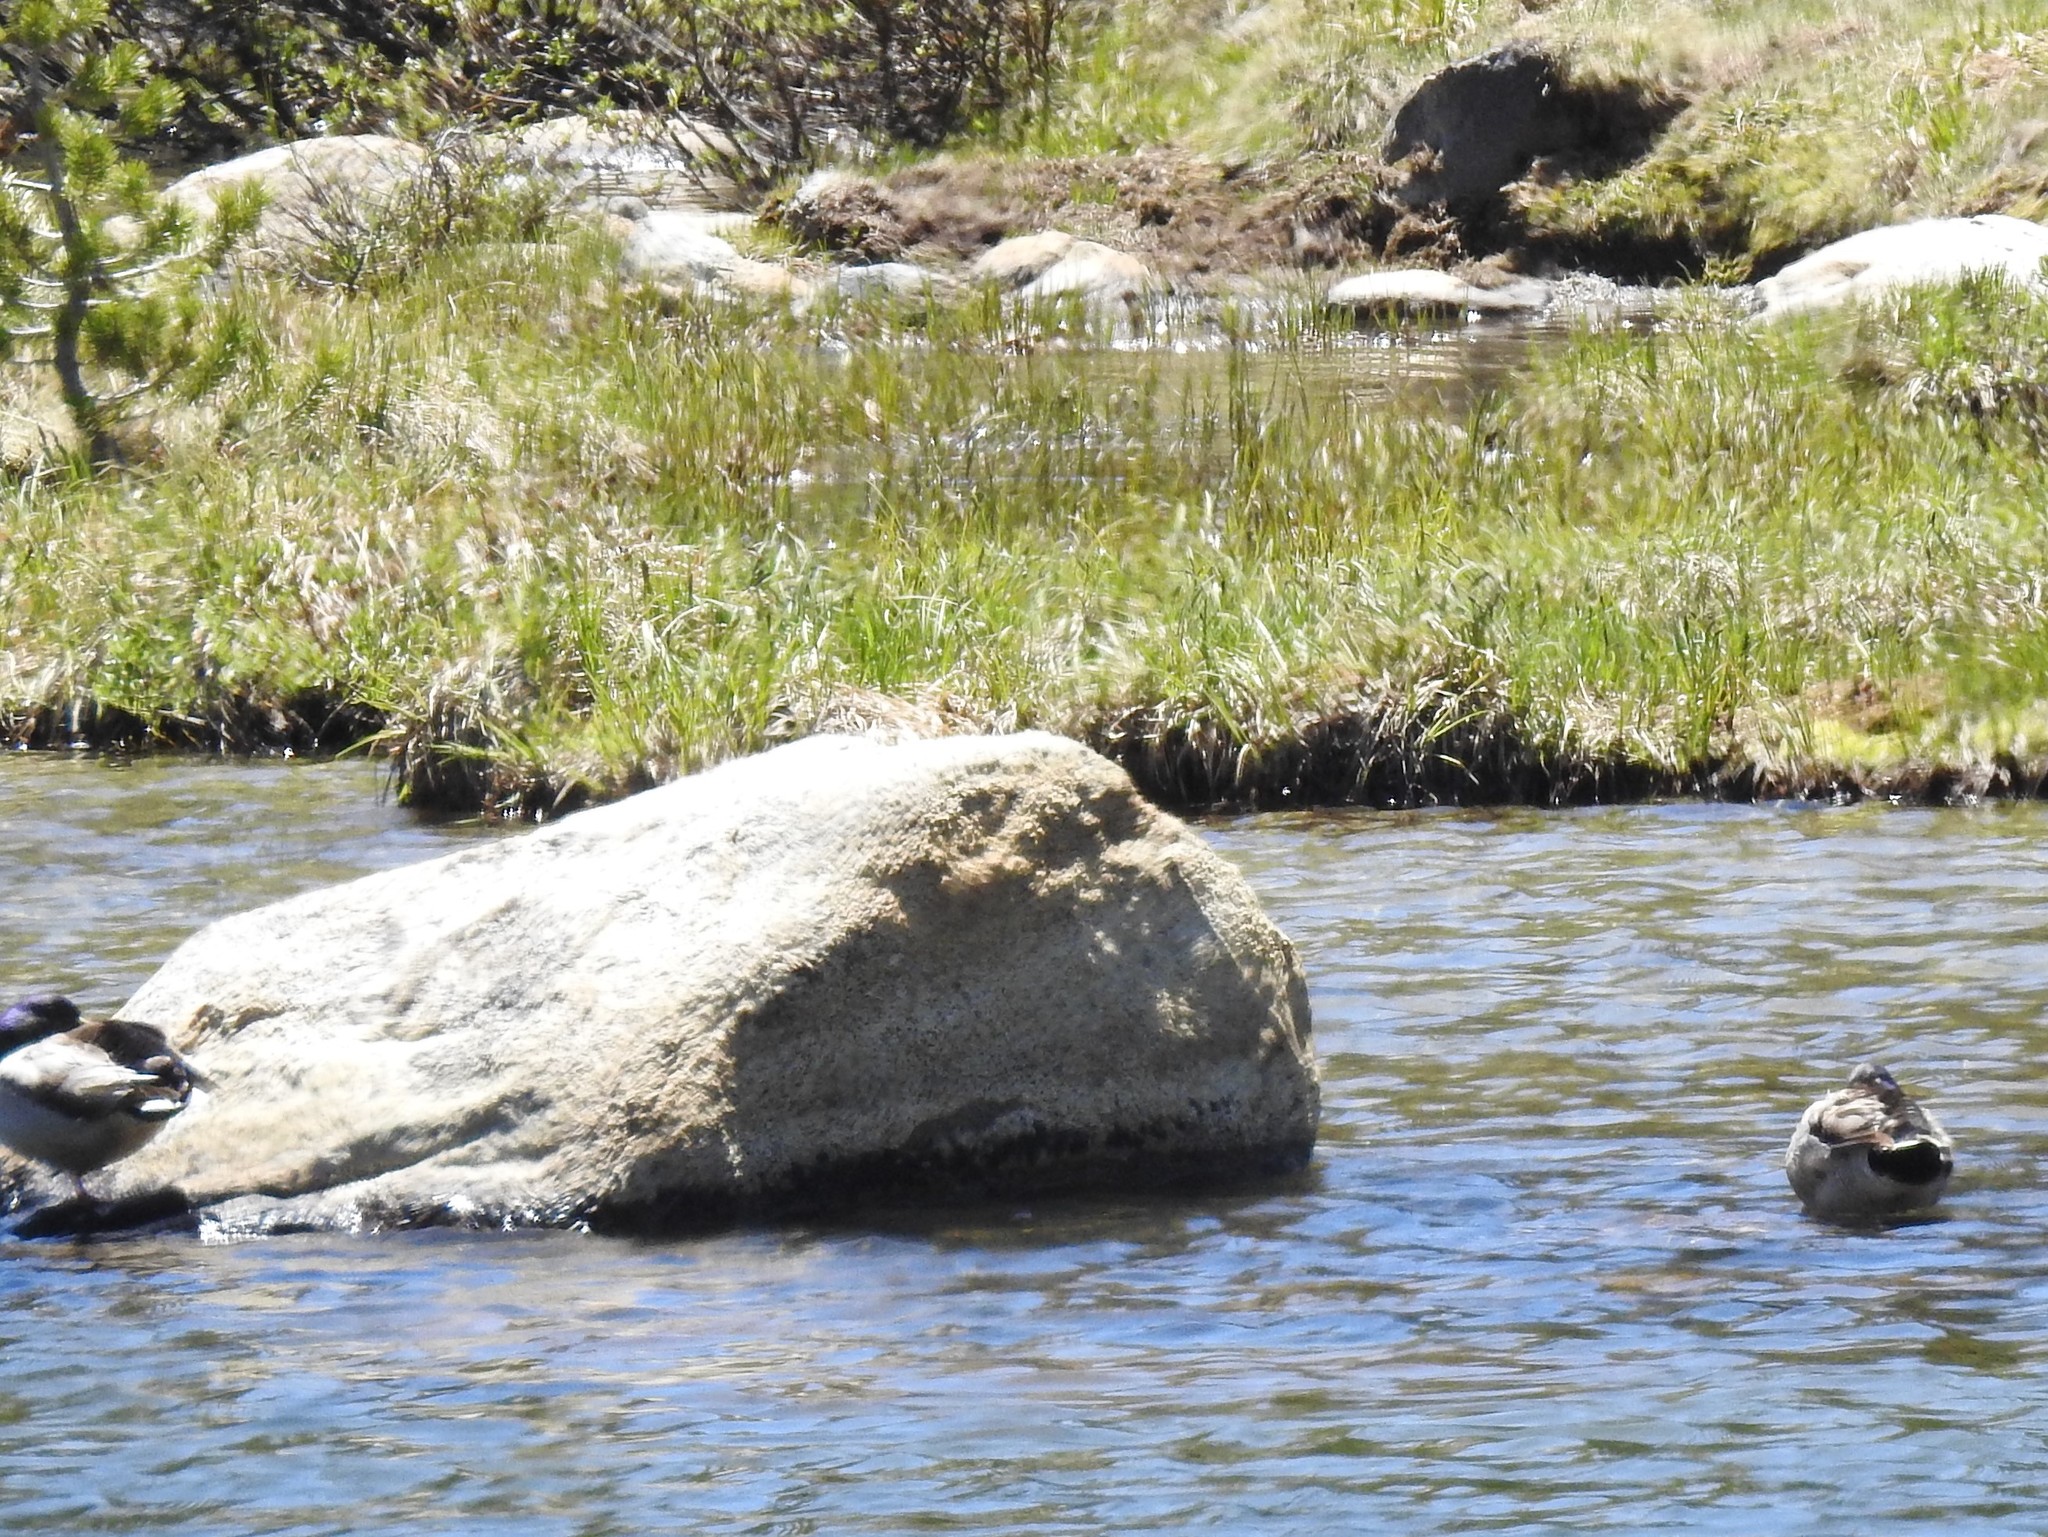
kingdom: Animalia
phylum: Chordata
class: Aves
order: Anseriformes
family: Anatidae
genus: Anas
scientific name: Anas platyrhynchos
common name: Mallard
